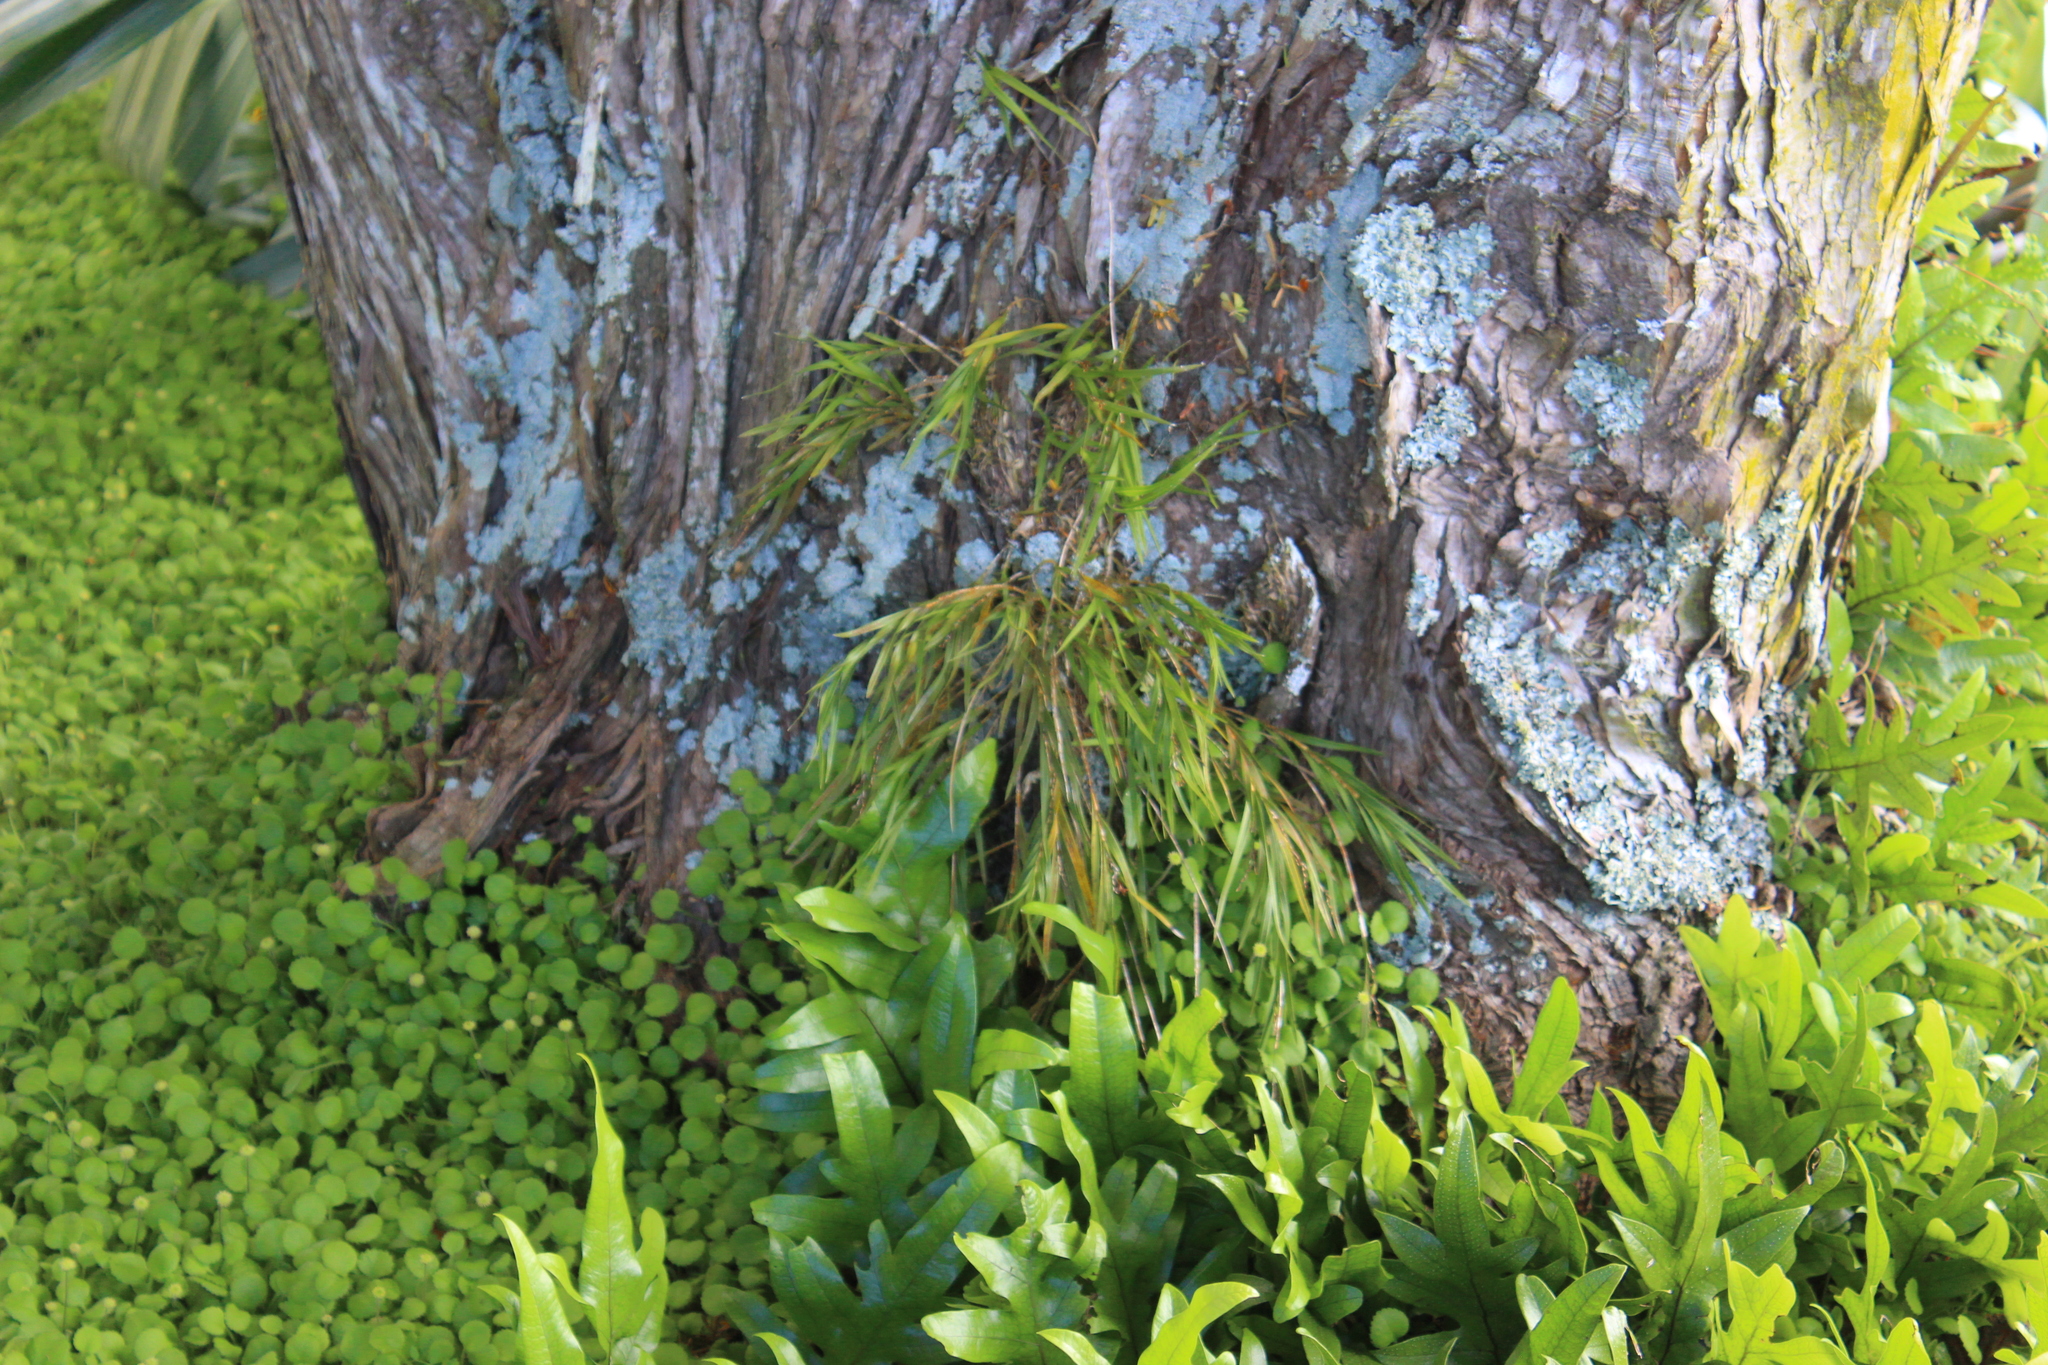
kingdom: Plantae
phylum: Tracheophyta
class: Liliopsida
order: Asparagales
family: Orchidaceae
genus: Earina
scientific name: Earina mucronata
